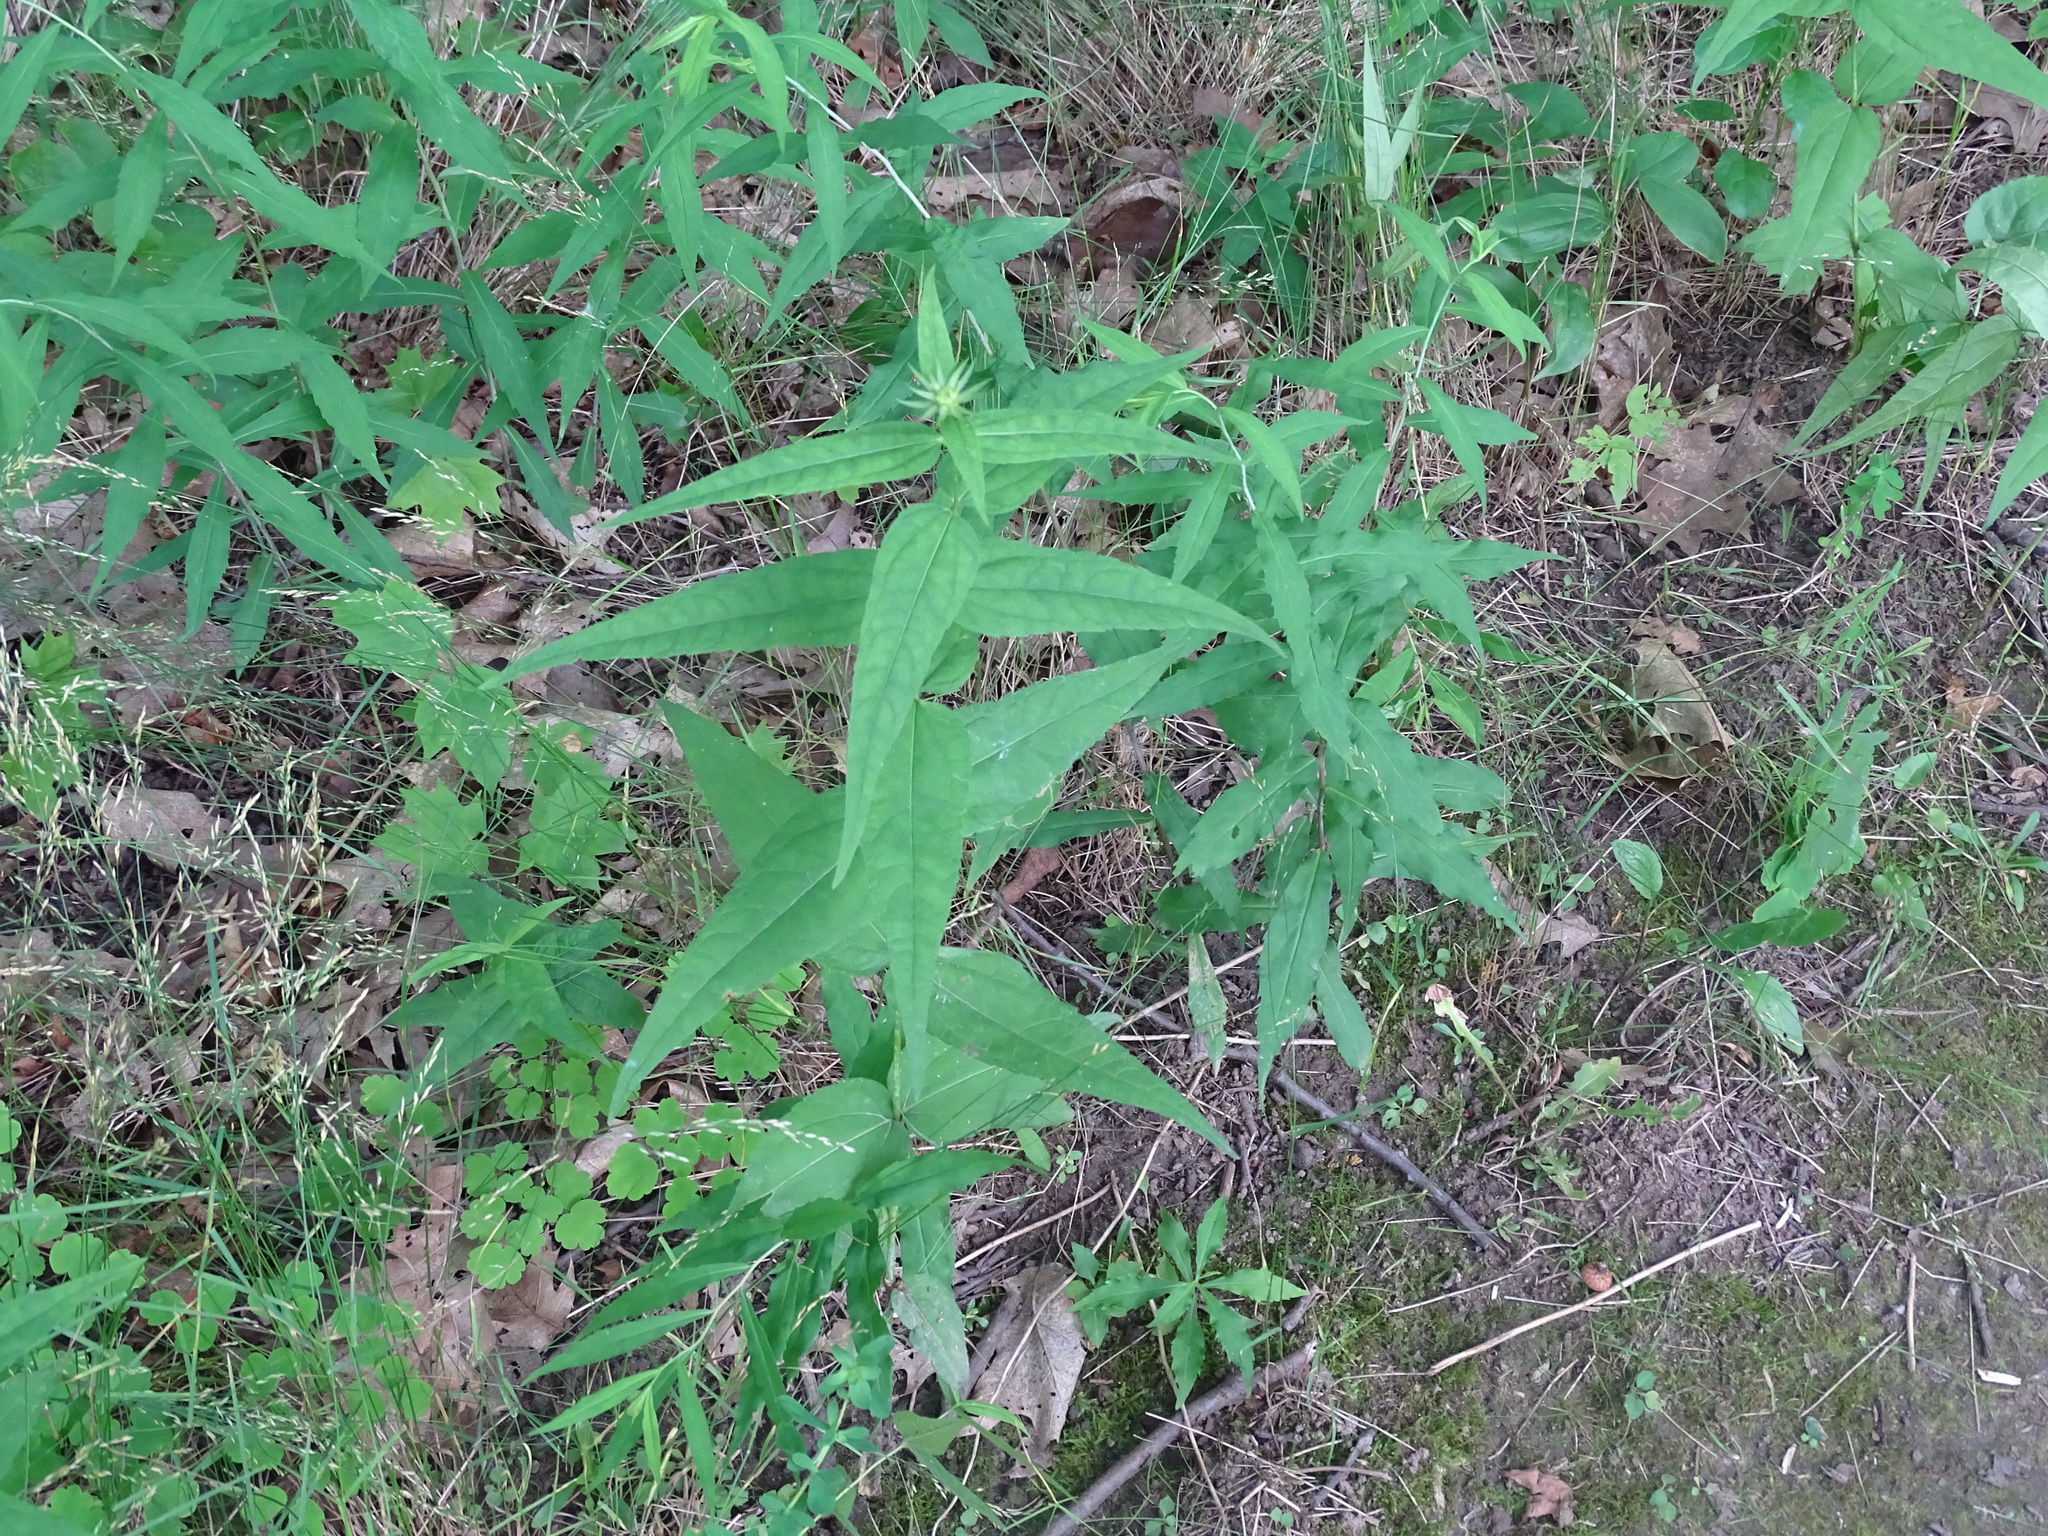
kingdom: Plantae
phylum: Tracheophyta
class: Magnoliopsida
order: Asterales
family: Asteraceae
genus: Helianthus
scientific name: Helianthus divaricatus
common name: Divergent sunflower
